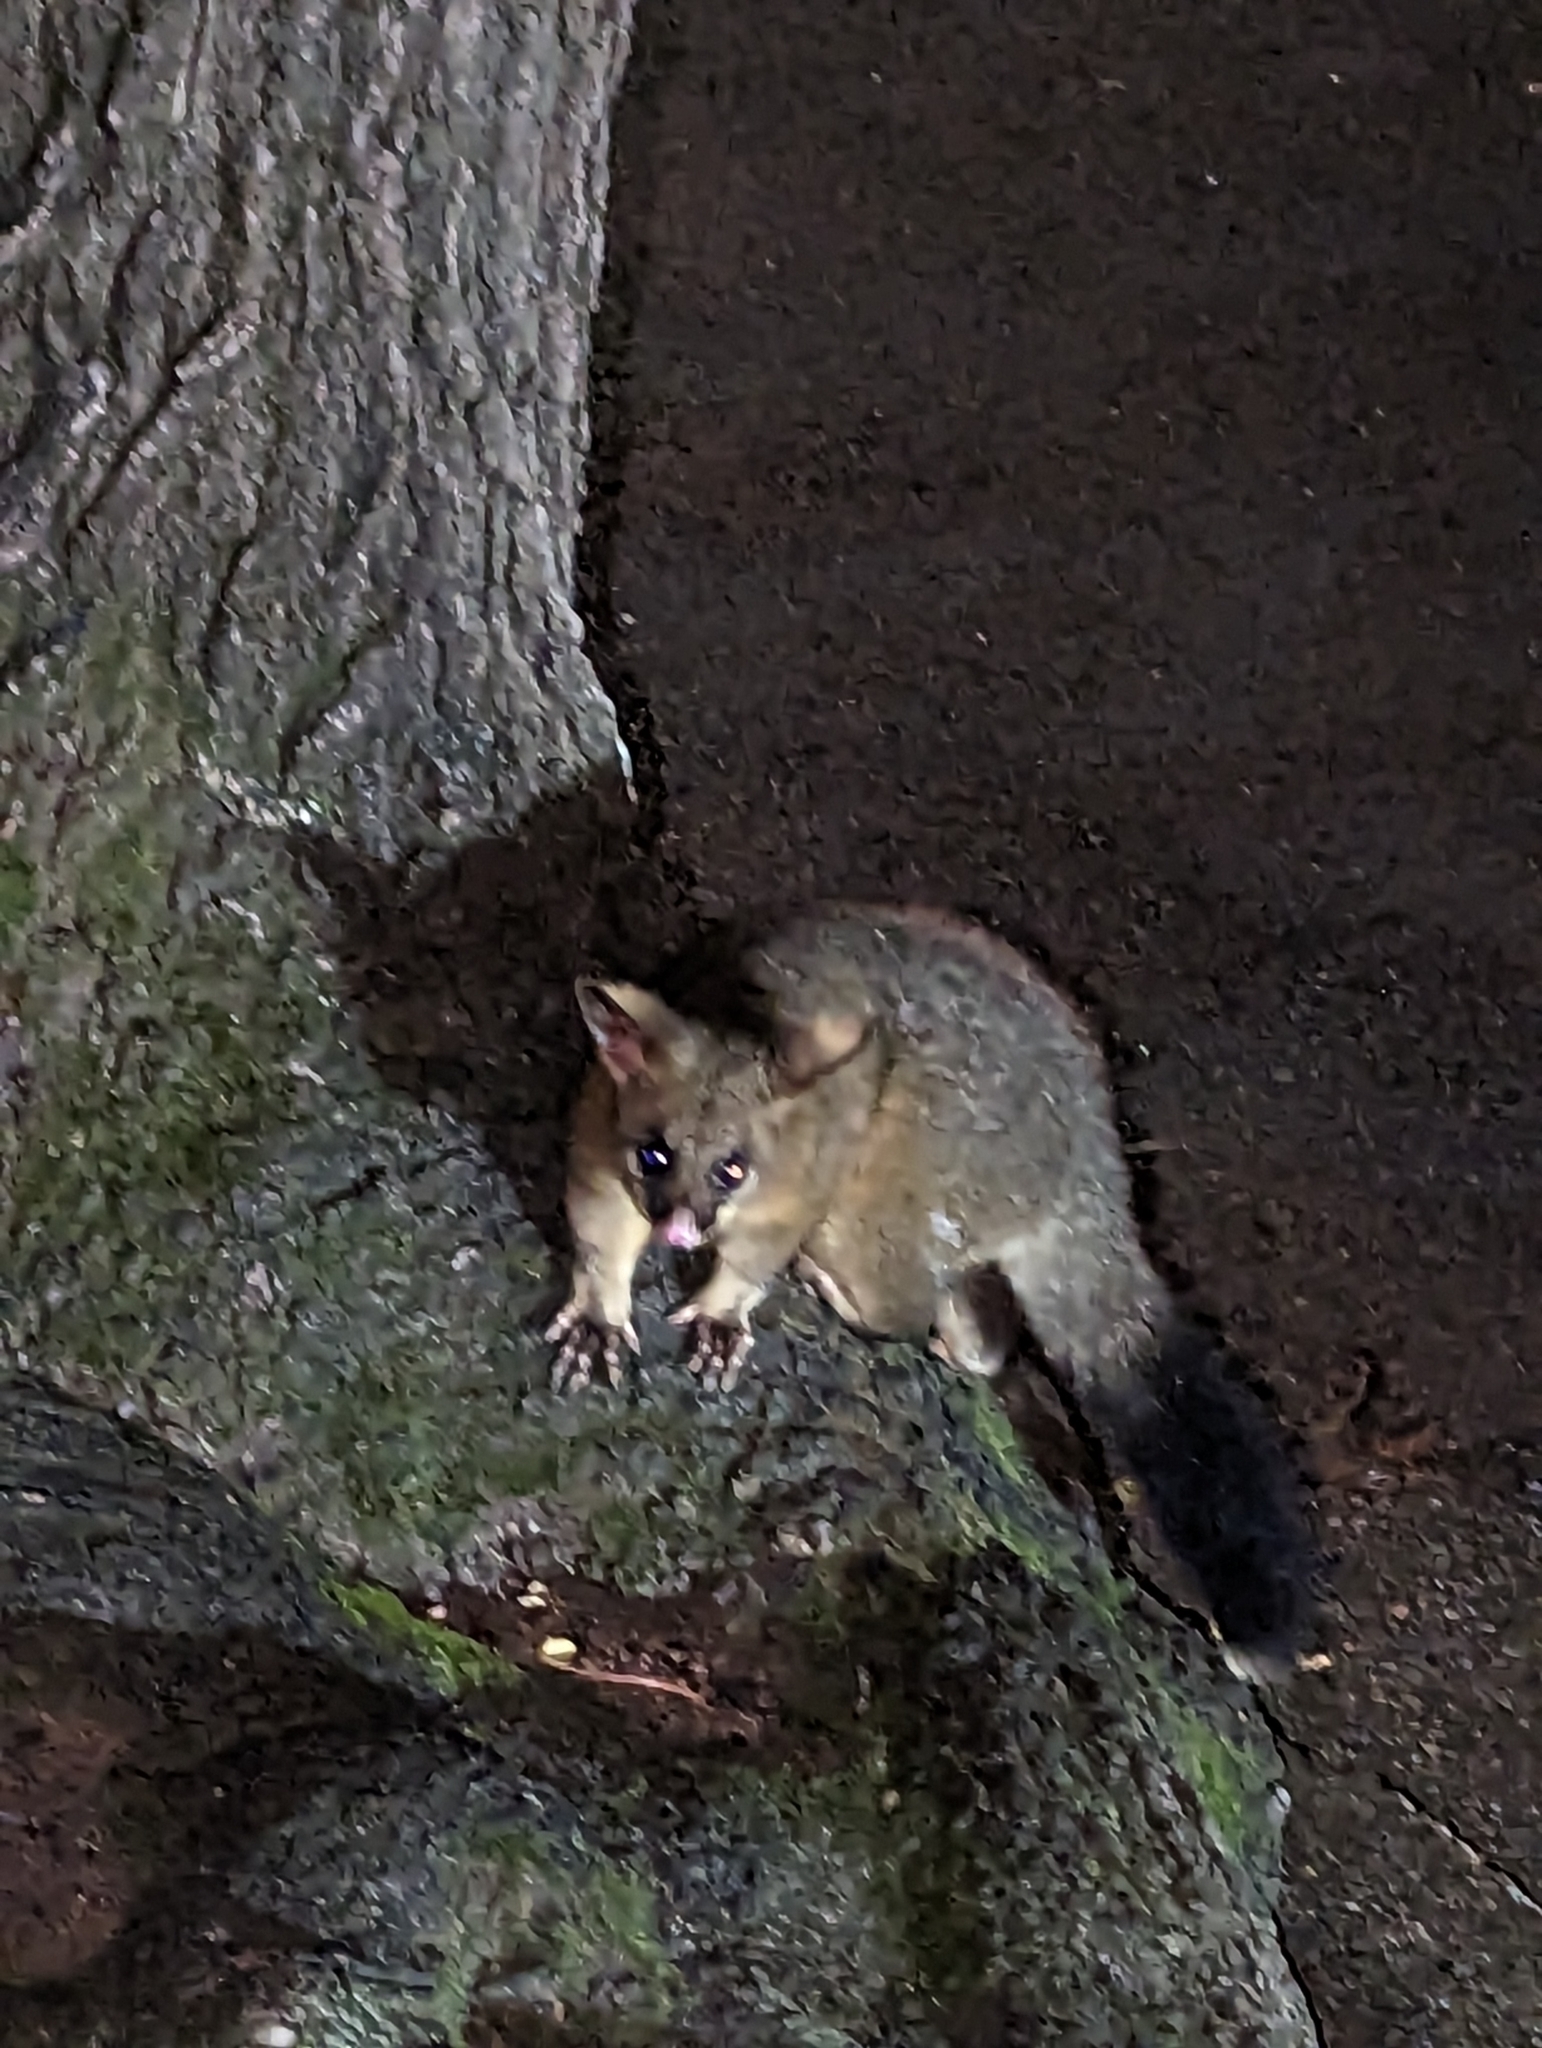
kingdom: Animalia
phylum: Chordata
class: Mammalia
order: Diprotodontia
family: Phalangeridae
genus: Trichosurus
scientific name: Trichosurus vulpecula
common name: Common brushtail
